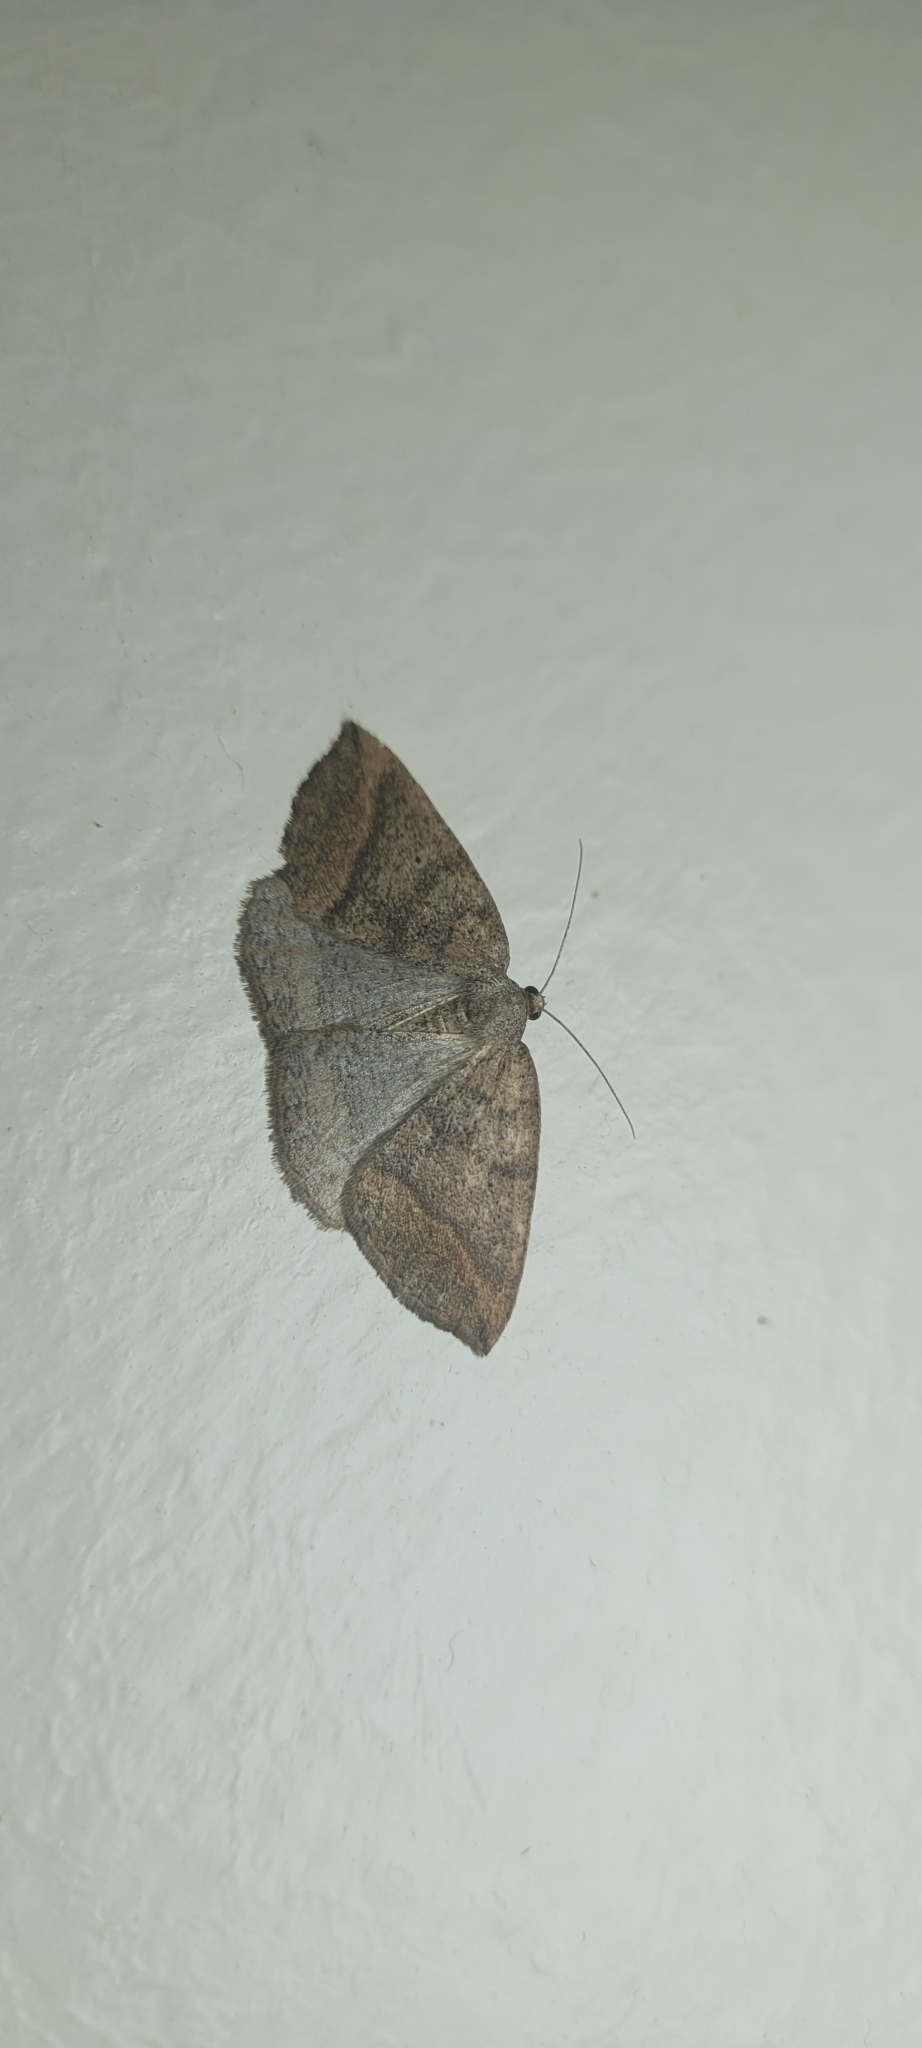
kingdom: Animalia
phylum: Arthropoda
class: Insecta
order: Lepidoptera
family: Geometridae
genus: Thysanopyga
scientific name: Thysanopyga
